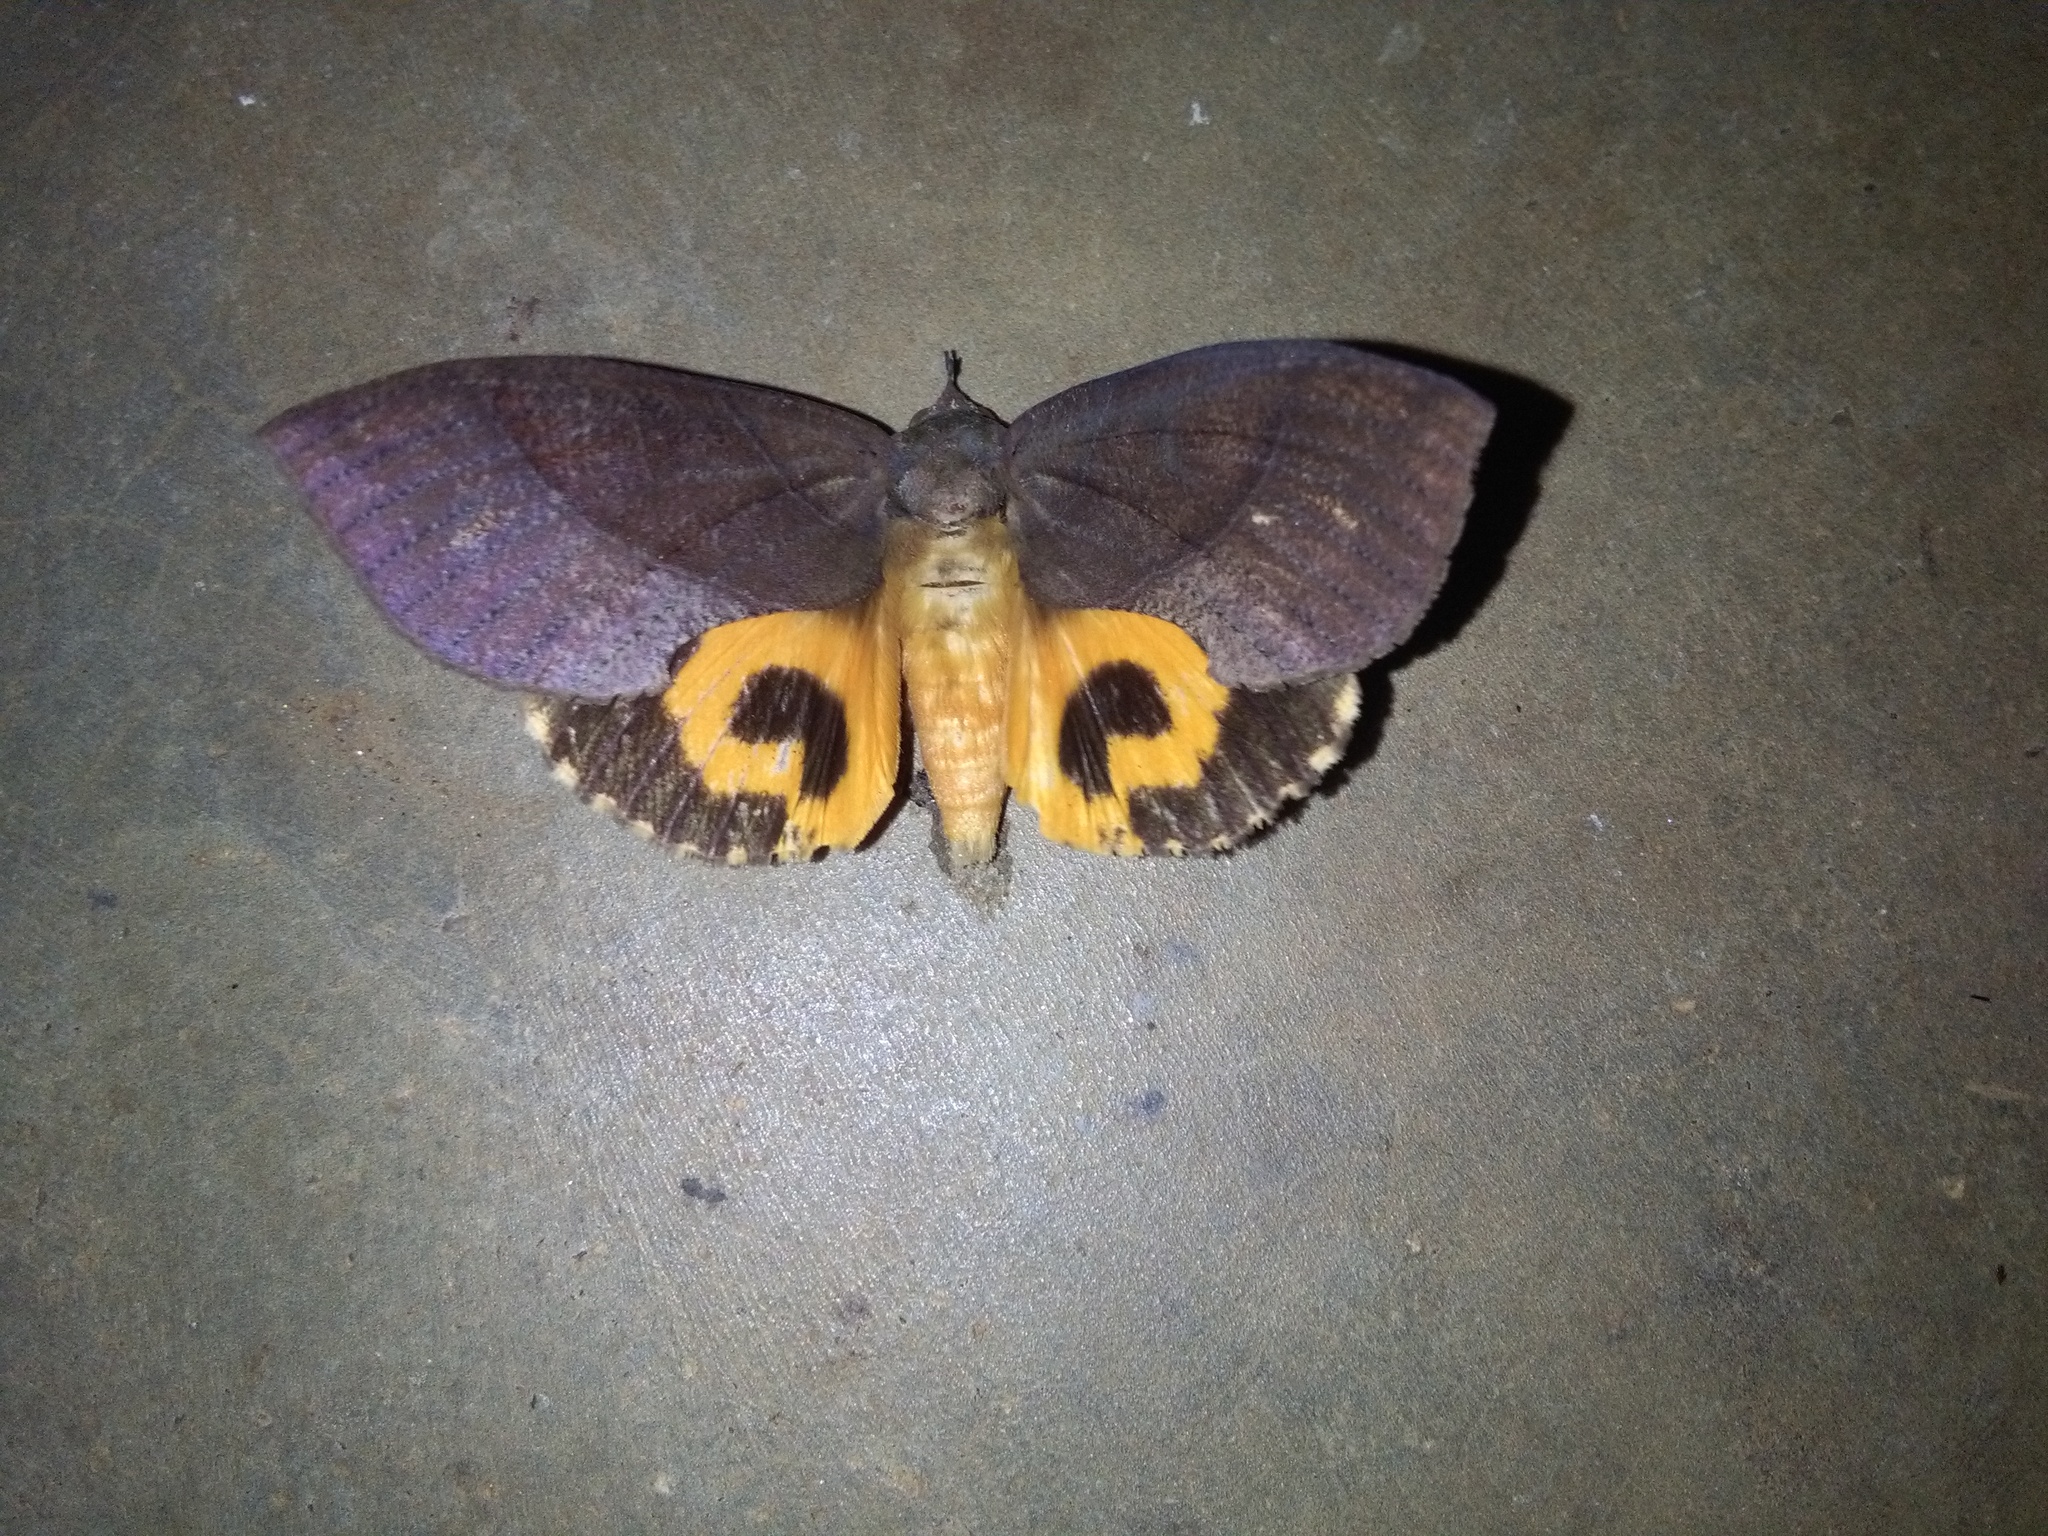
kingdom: Animalia
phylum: Arthropoda
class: Insecta
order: Lepidoptera
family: Erebidae
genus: Eudocima
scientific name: Eudocima phalonia
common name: Wasp
